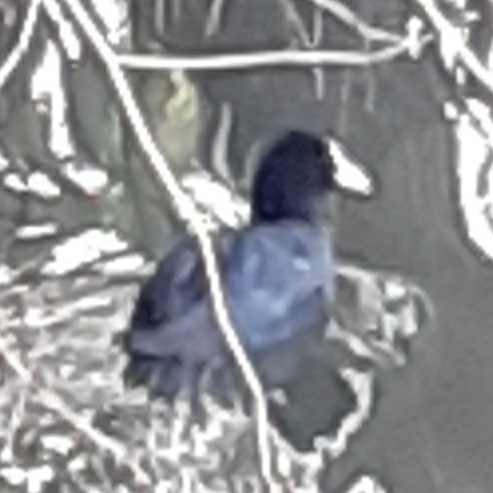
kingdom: Animalia
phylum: Chordata
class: Aves
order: Gruiformes
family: Rallidae
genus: Fulica
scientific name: Fulica atra
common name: Eurasian coot
